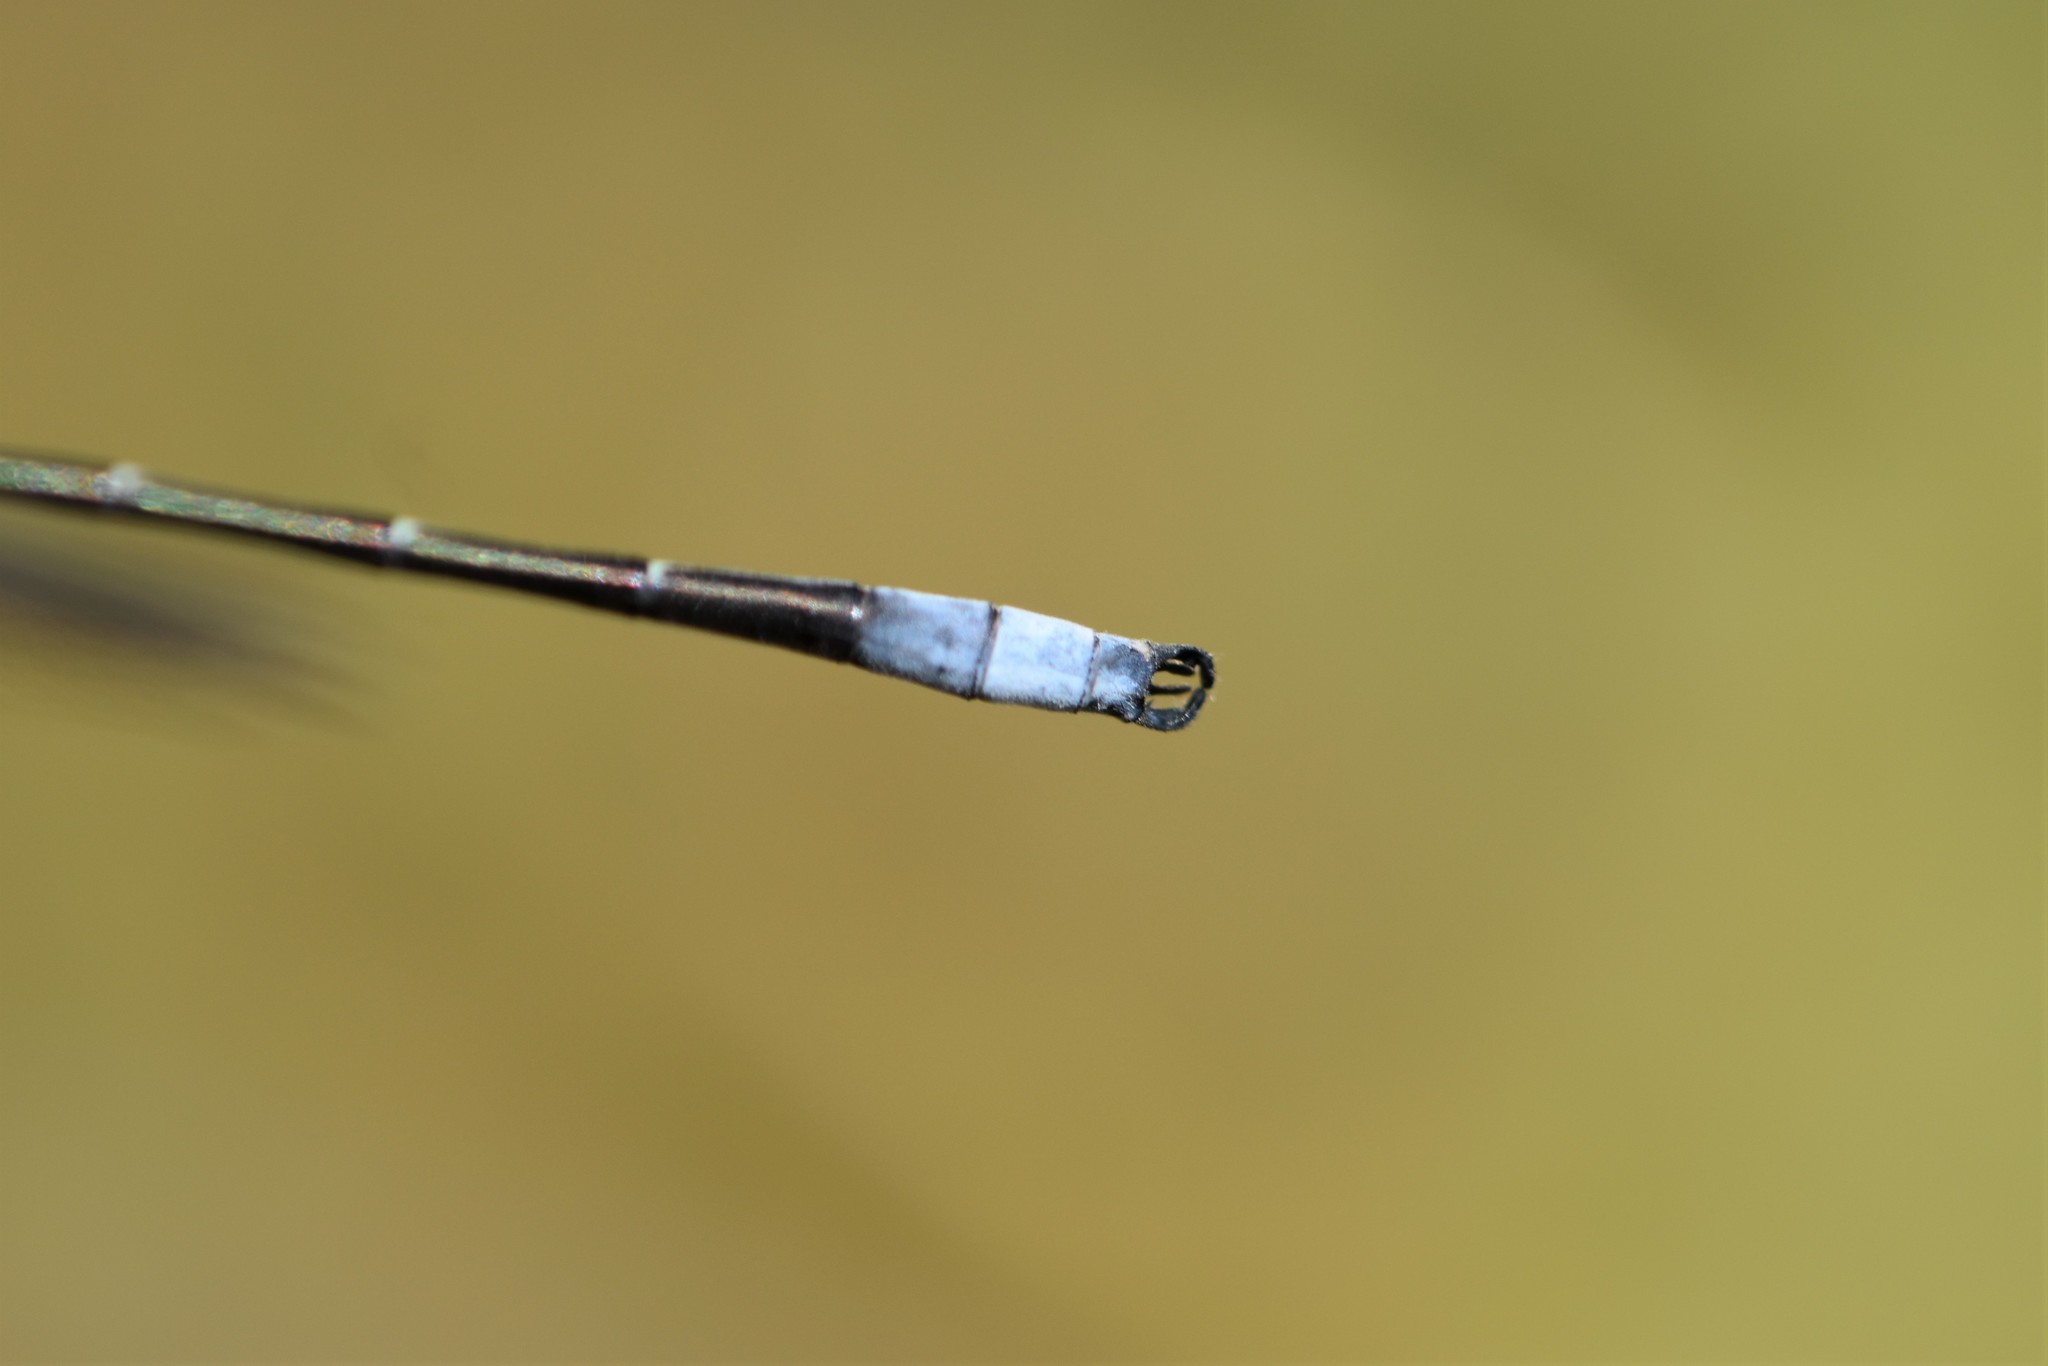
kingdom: Animalia
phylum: Arthropoda
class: Insecta
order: Odonata
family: Lestidae
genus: Lestes
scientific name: Lestes forcipatus
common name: Sweetflag spreadwing
